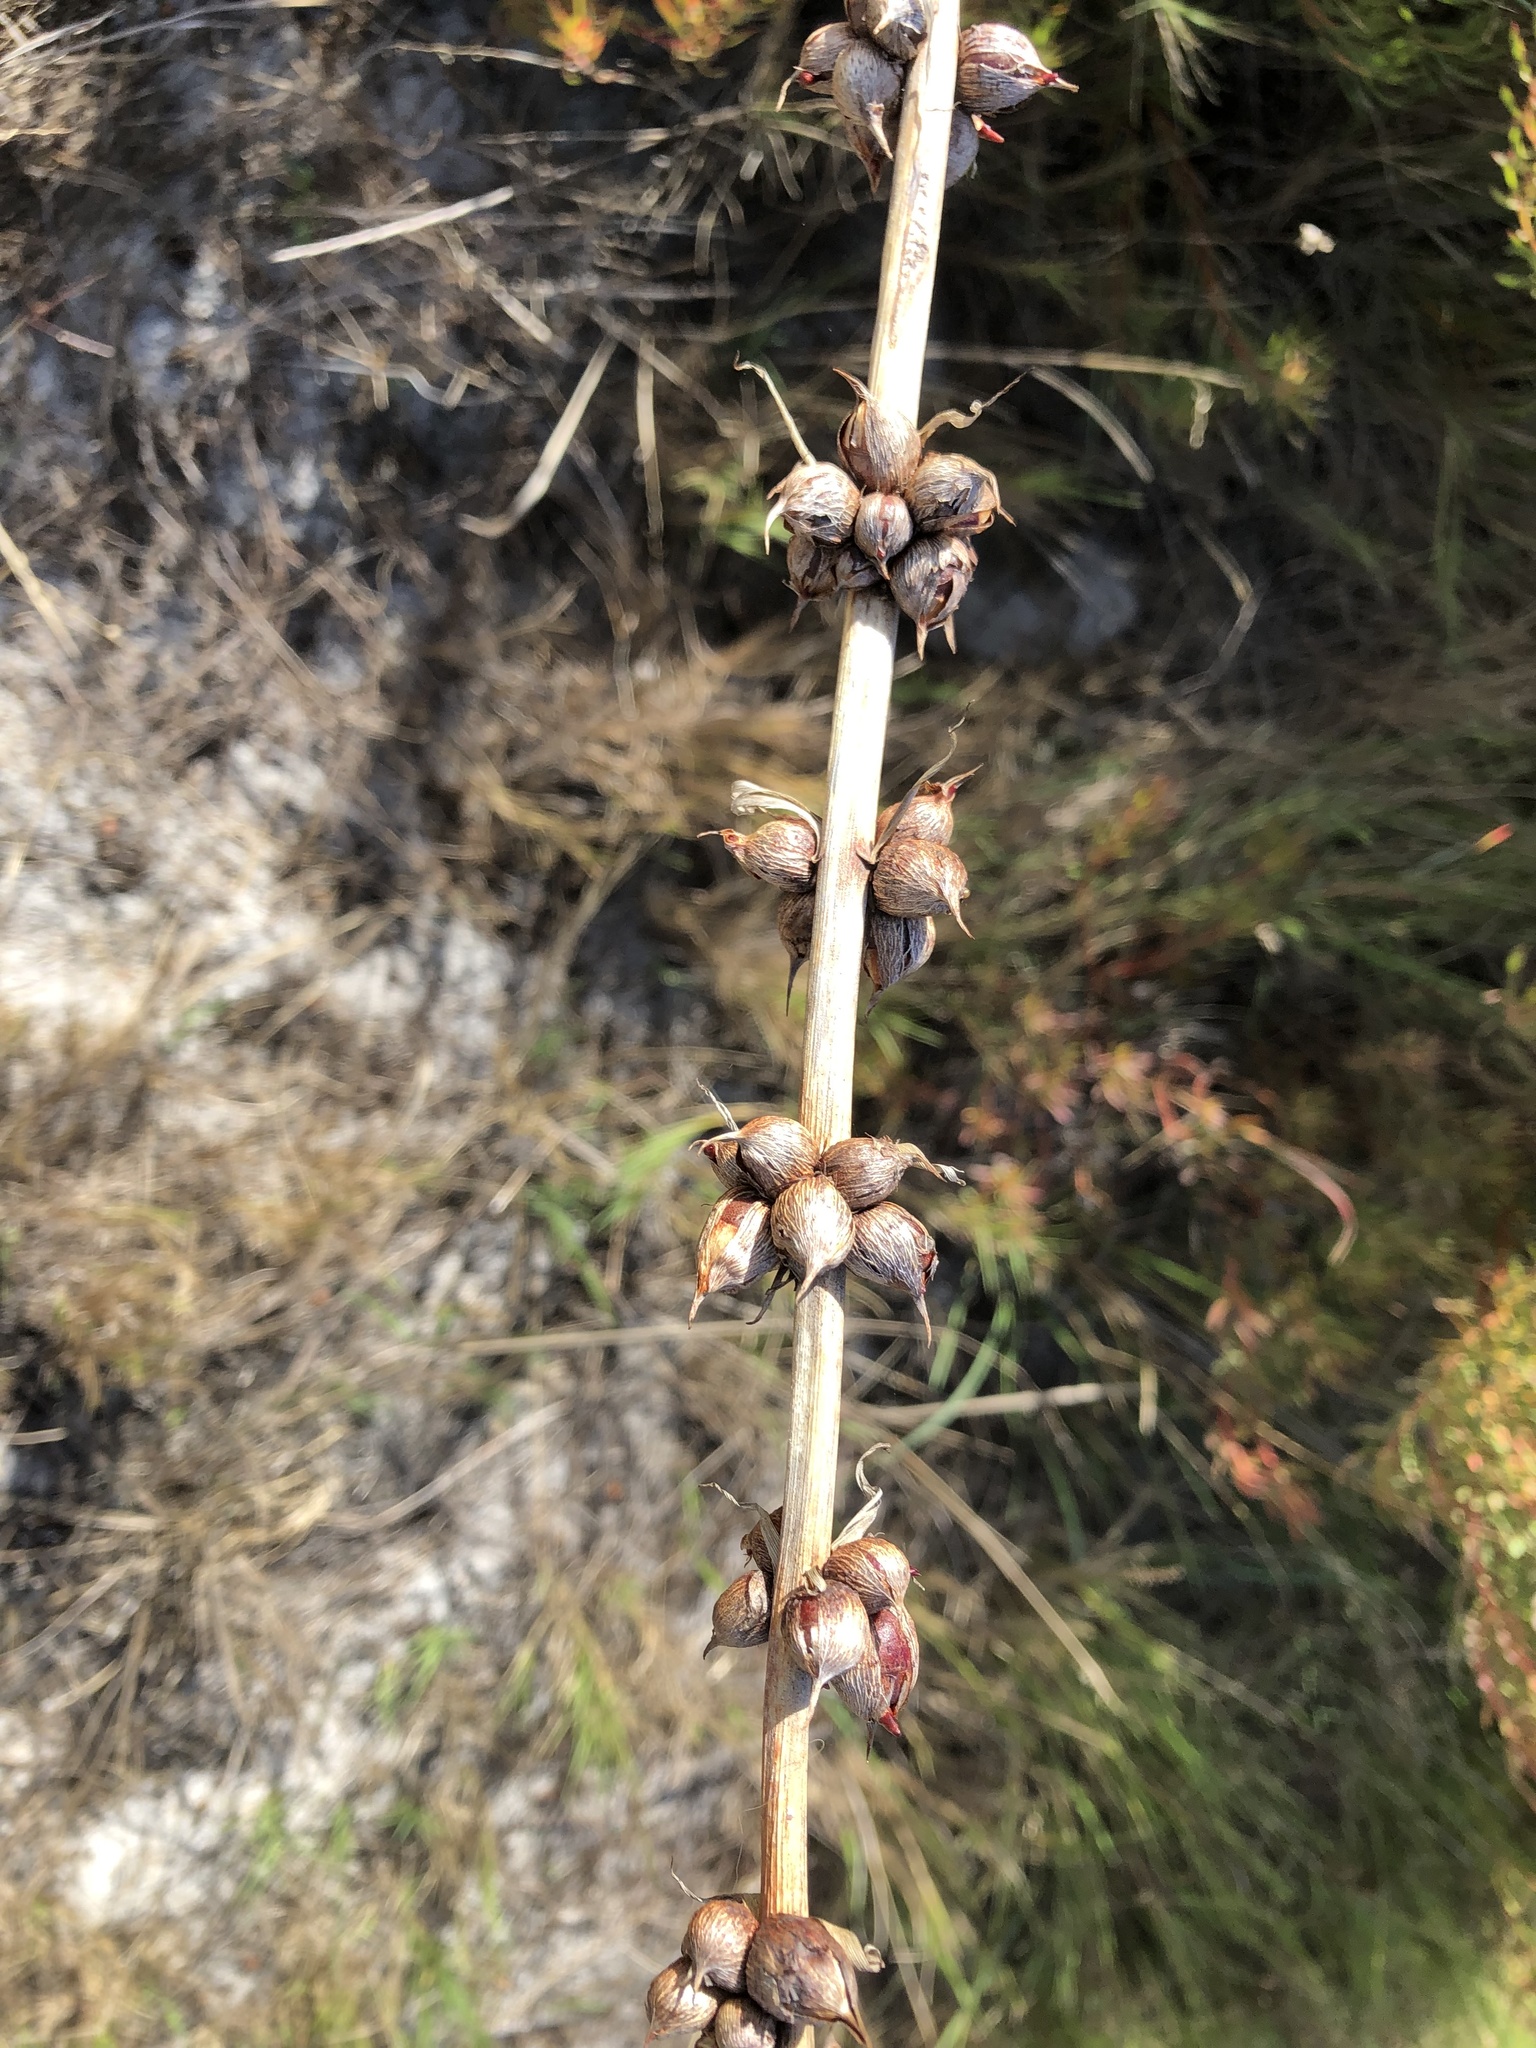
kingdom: Plantae
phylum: Tracheophyta
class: Liliopsida
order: Asparagales
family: Iridaceae
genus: Watsonia
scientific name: Watsonia meriana
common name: Bulbil bugle-lily
